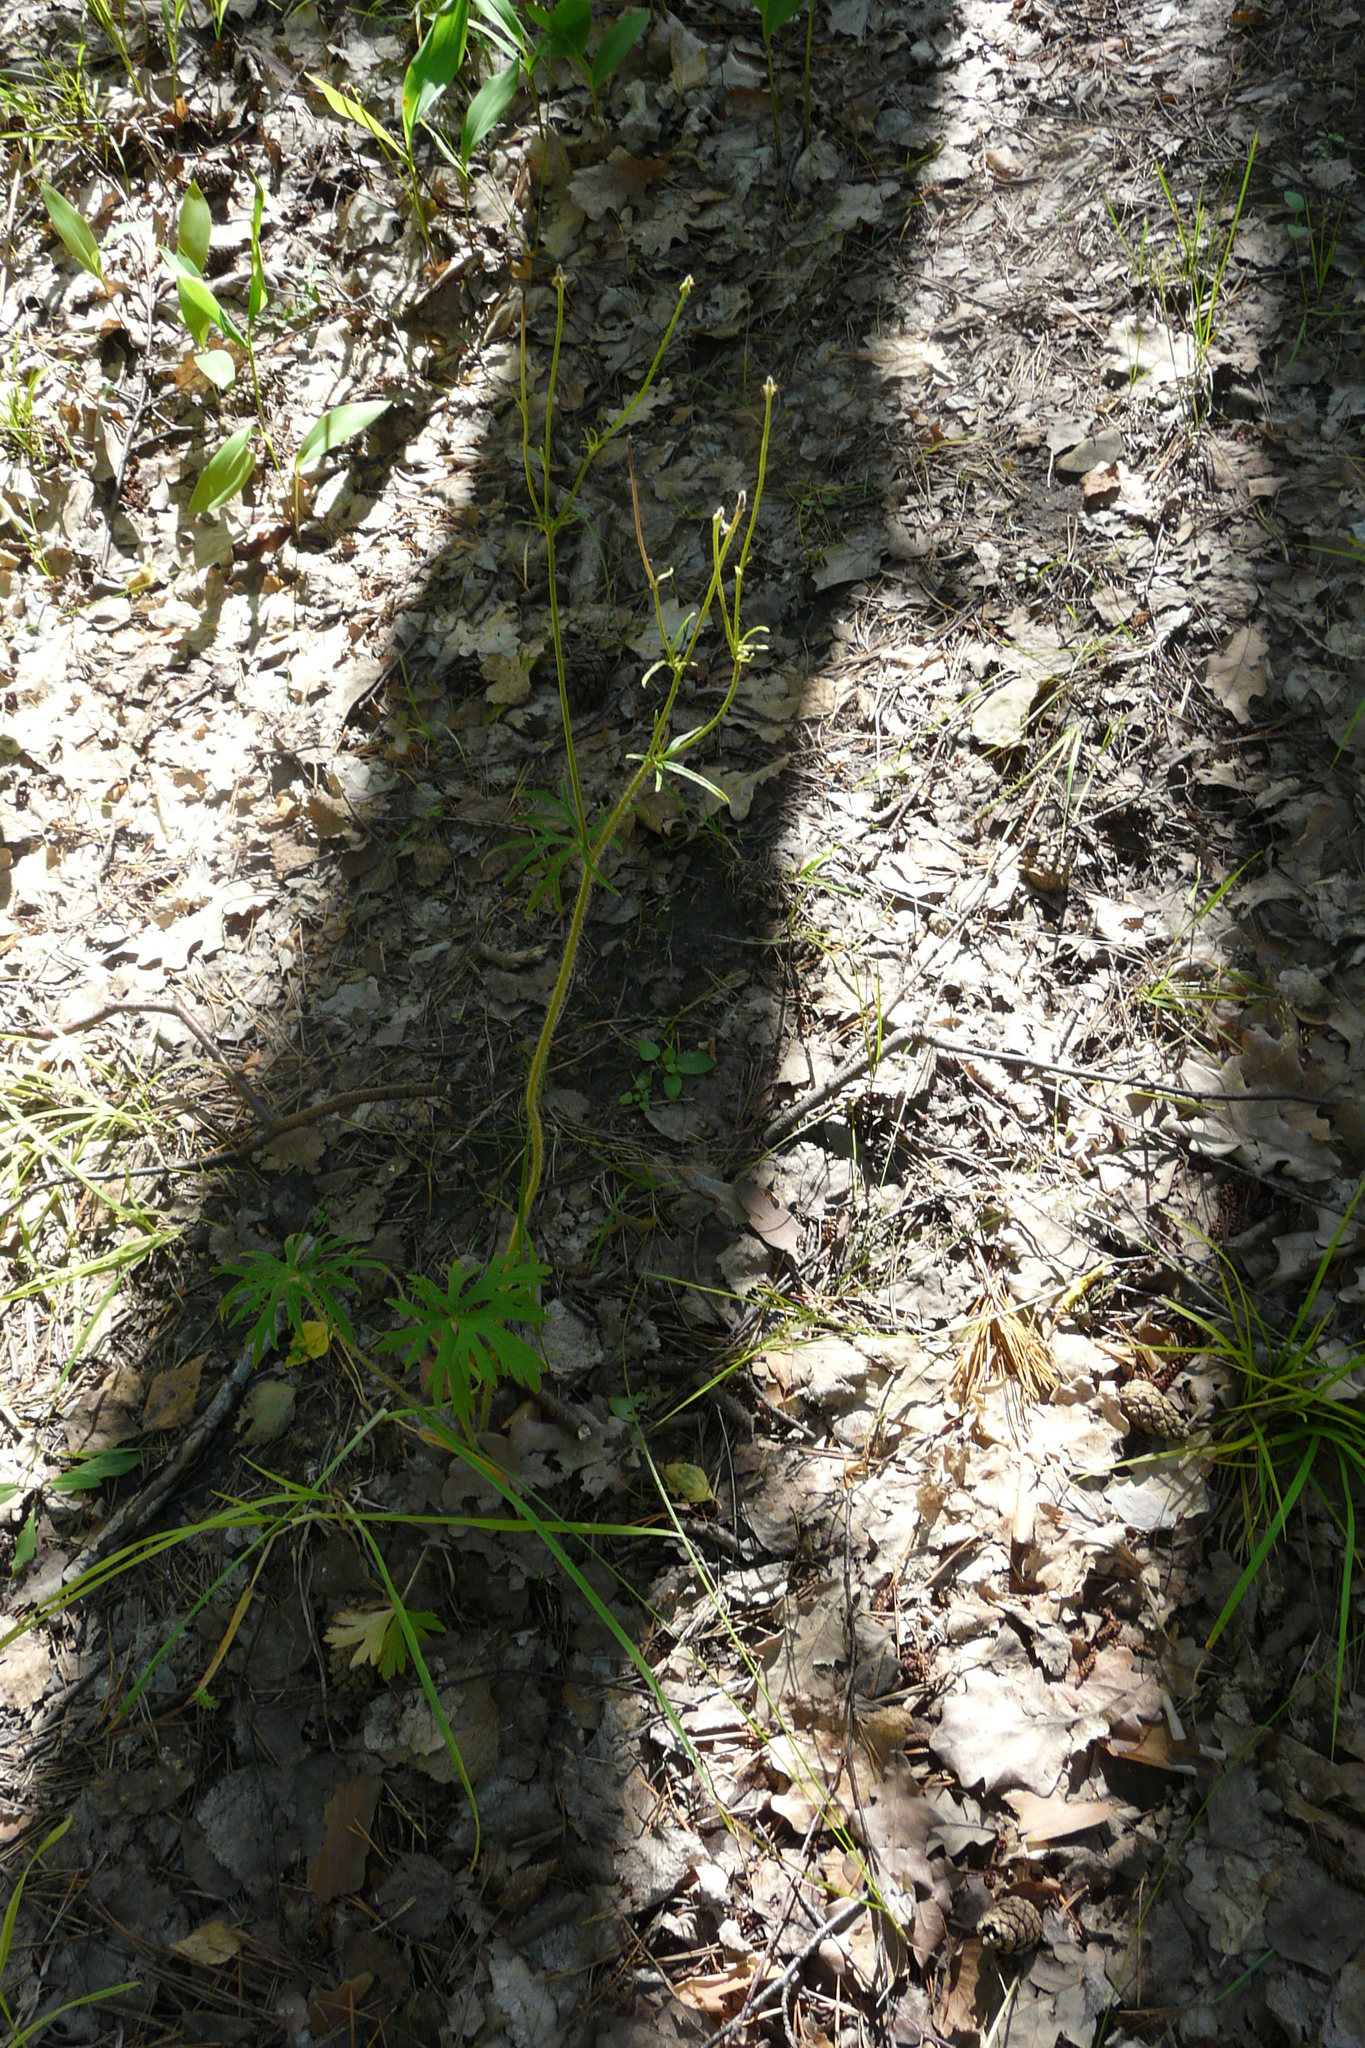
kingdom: Plantae
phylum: Tracheophyta
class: Magnoliopsida
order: Ranunculales
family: Ranunculaceae
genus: Ranunculus
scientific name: Ranunculus polyanthemos
